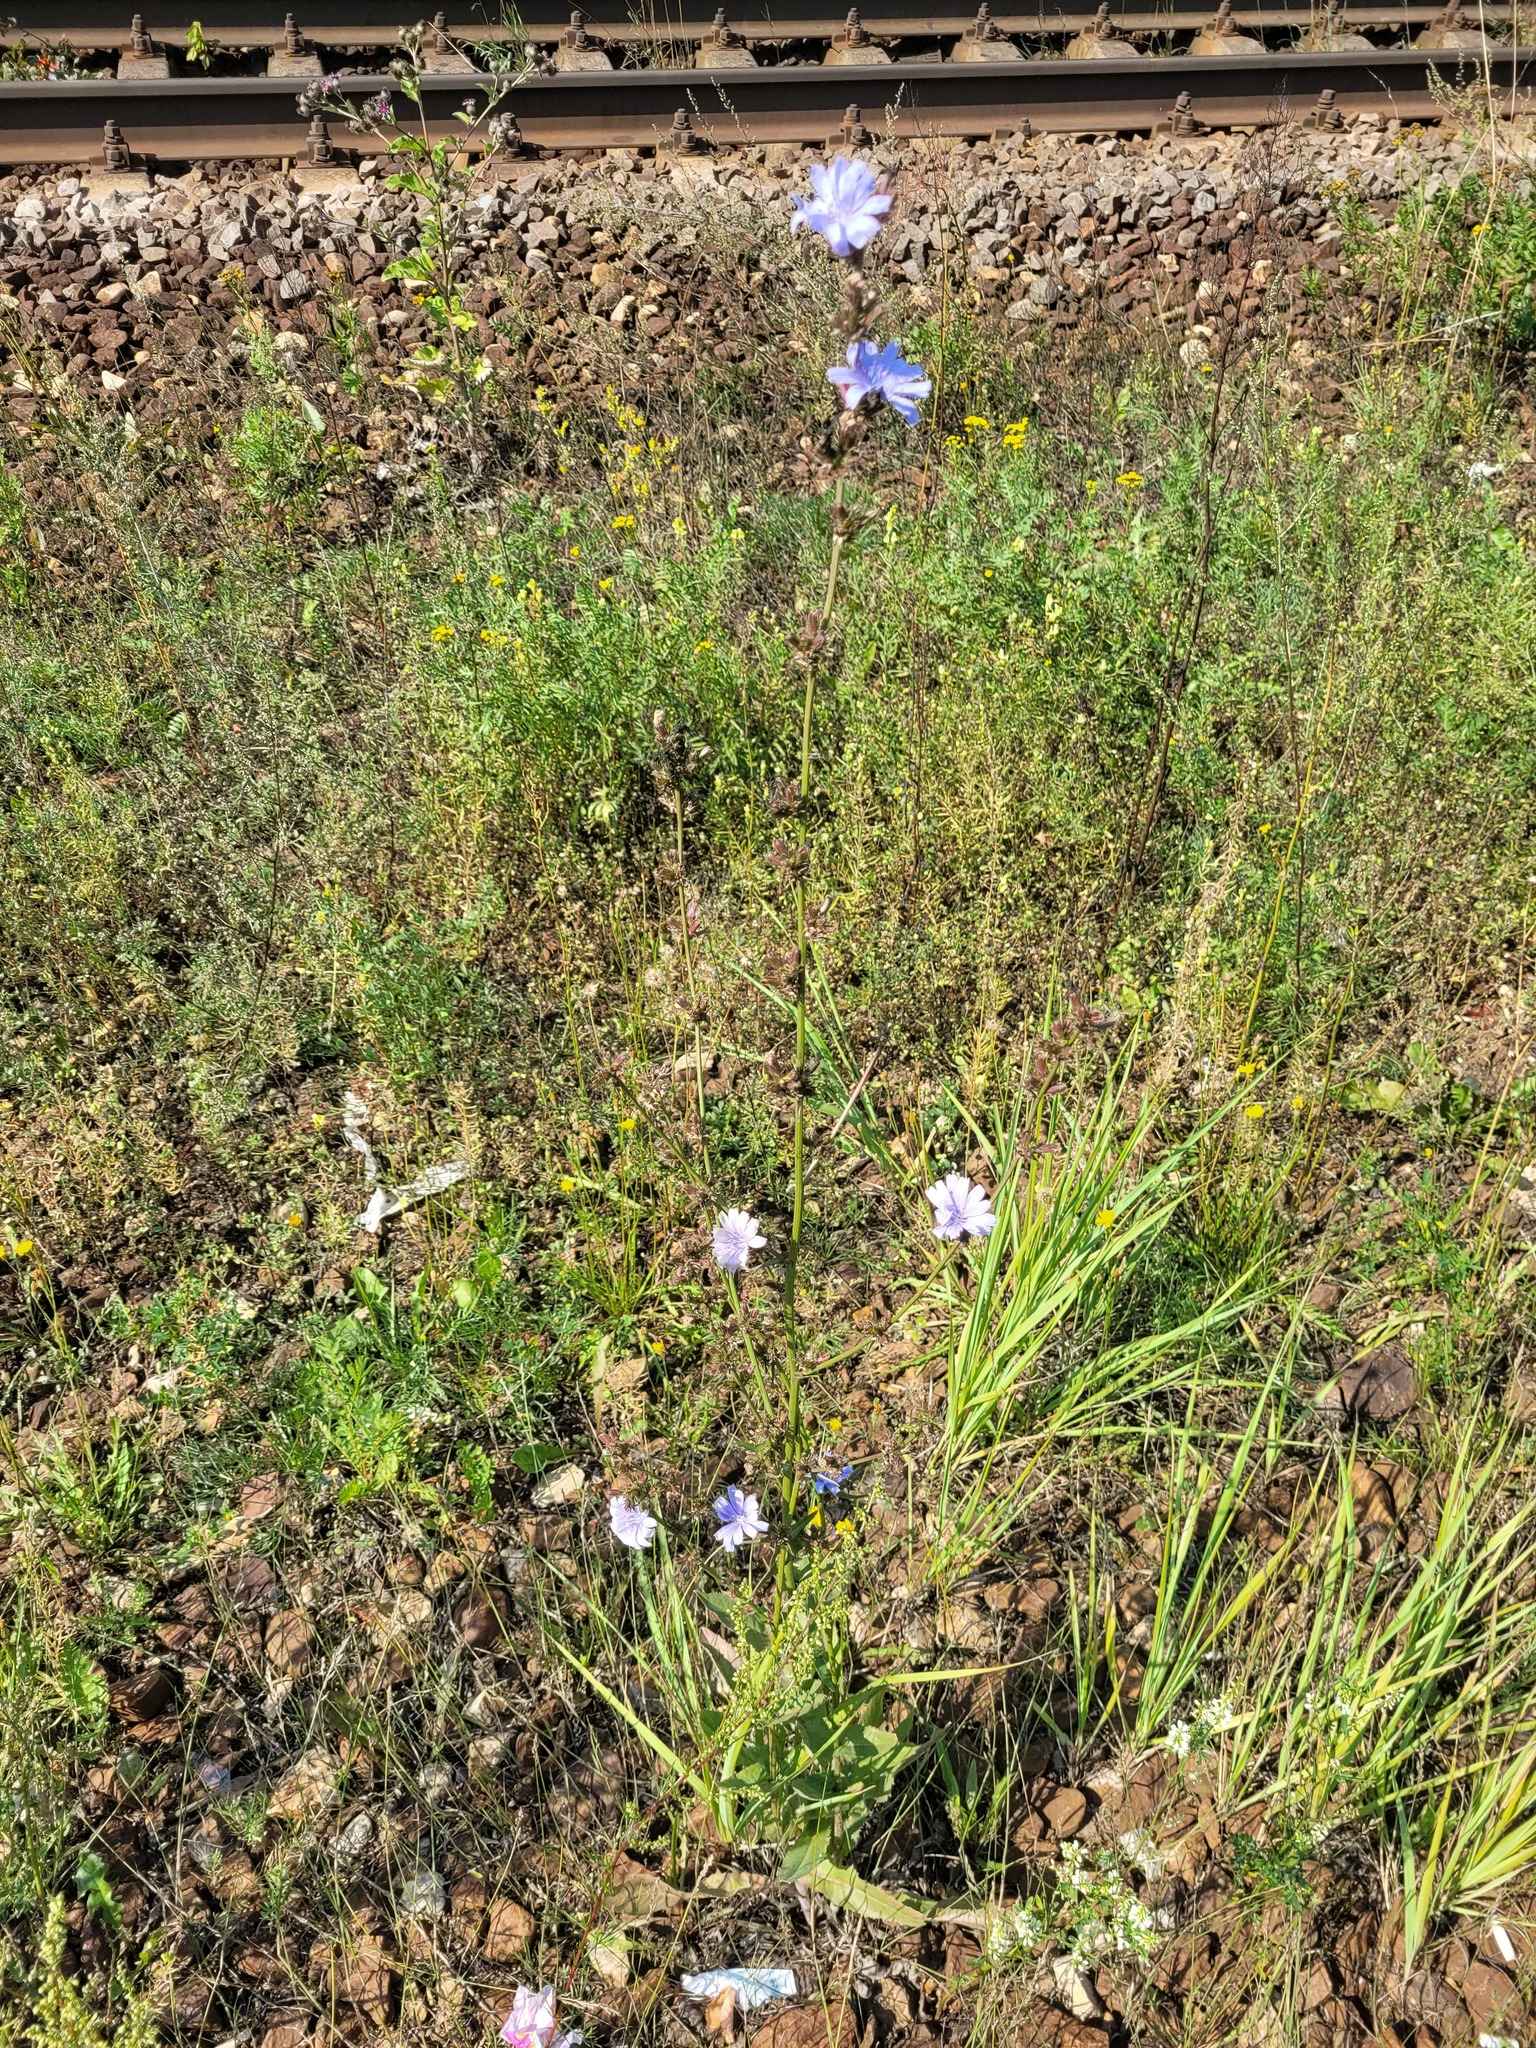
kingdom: Plantae
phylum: Tracheophyta
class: Magnoliopsida
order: Asterales
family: Asteraceae
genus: Cichorium
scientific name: Cichorium intybus
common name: Chicory
